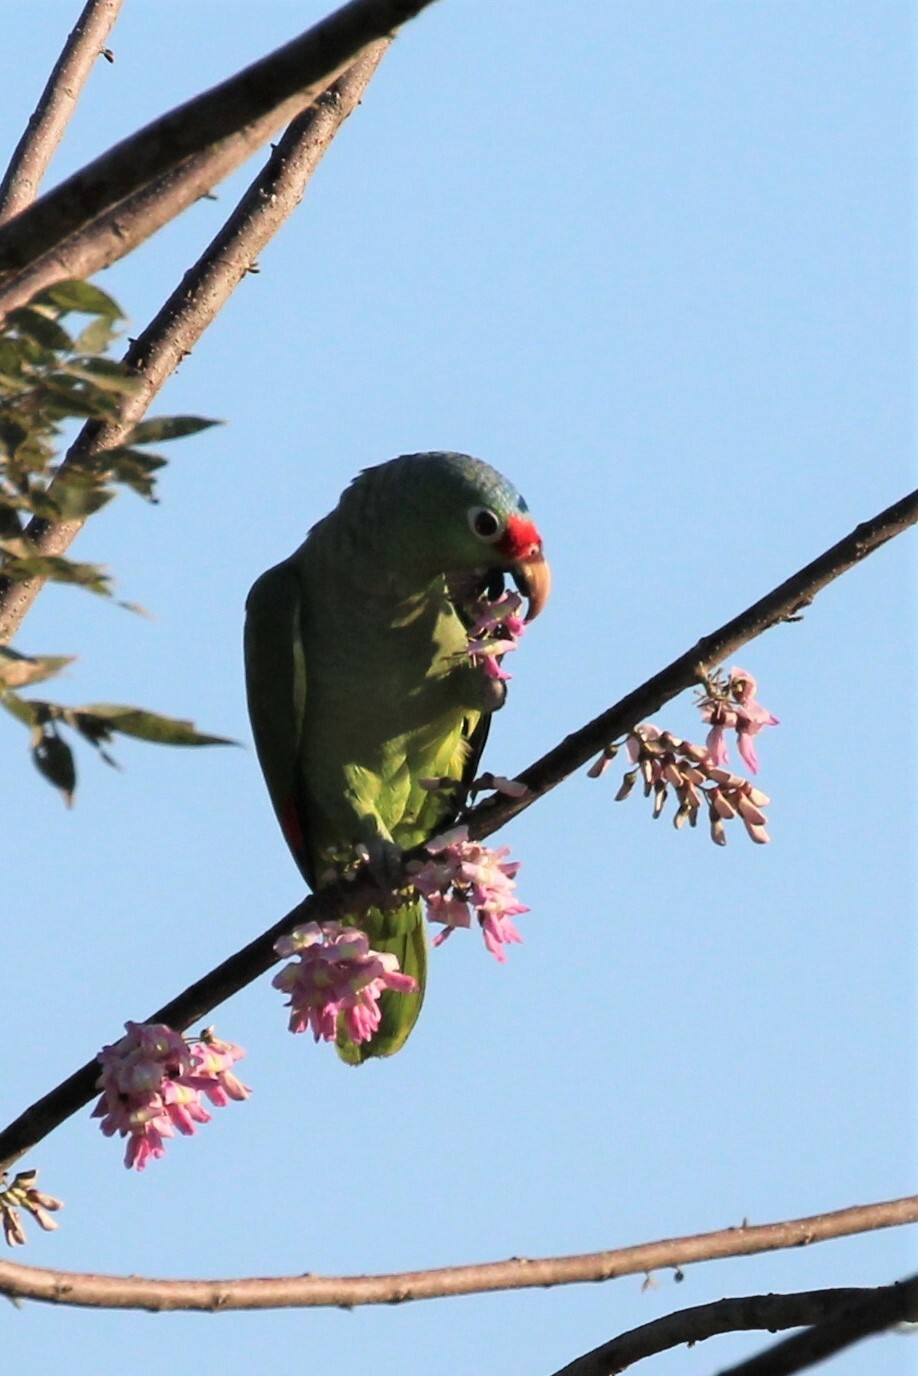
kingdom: Animalia
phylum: Chordata
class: Aves
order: Psittaciformes
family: Psittacidae
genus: Amazona
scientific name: Amazona autumnalis
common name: Red-lored amazon
